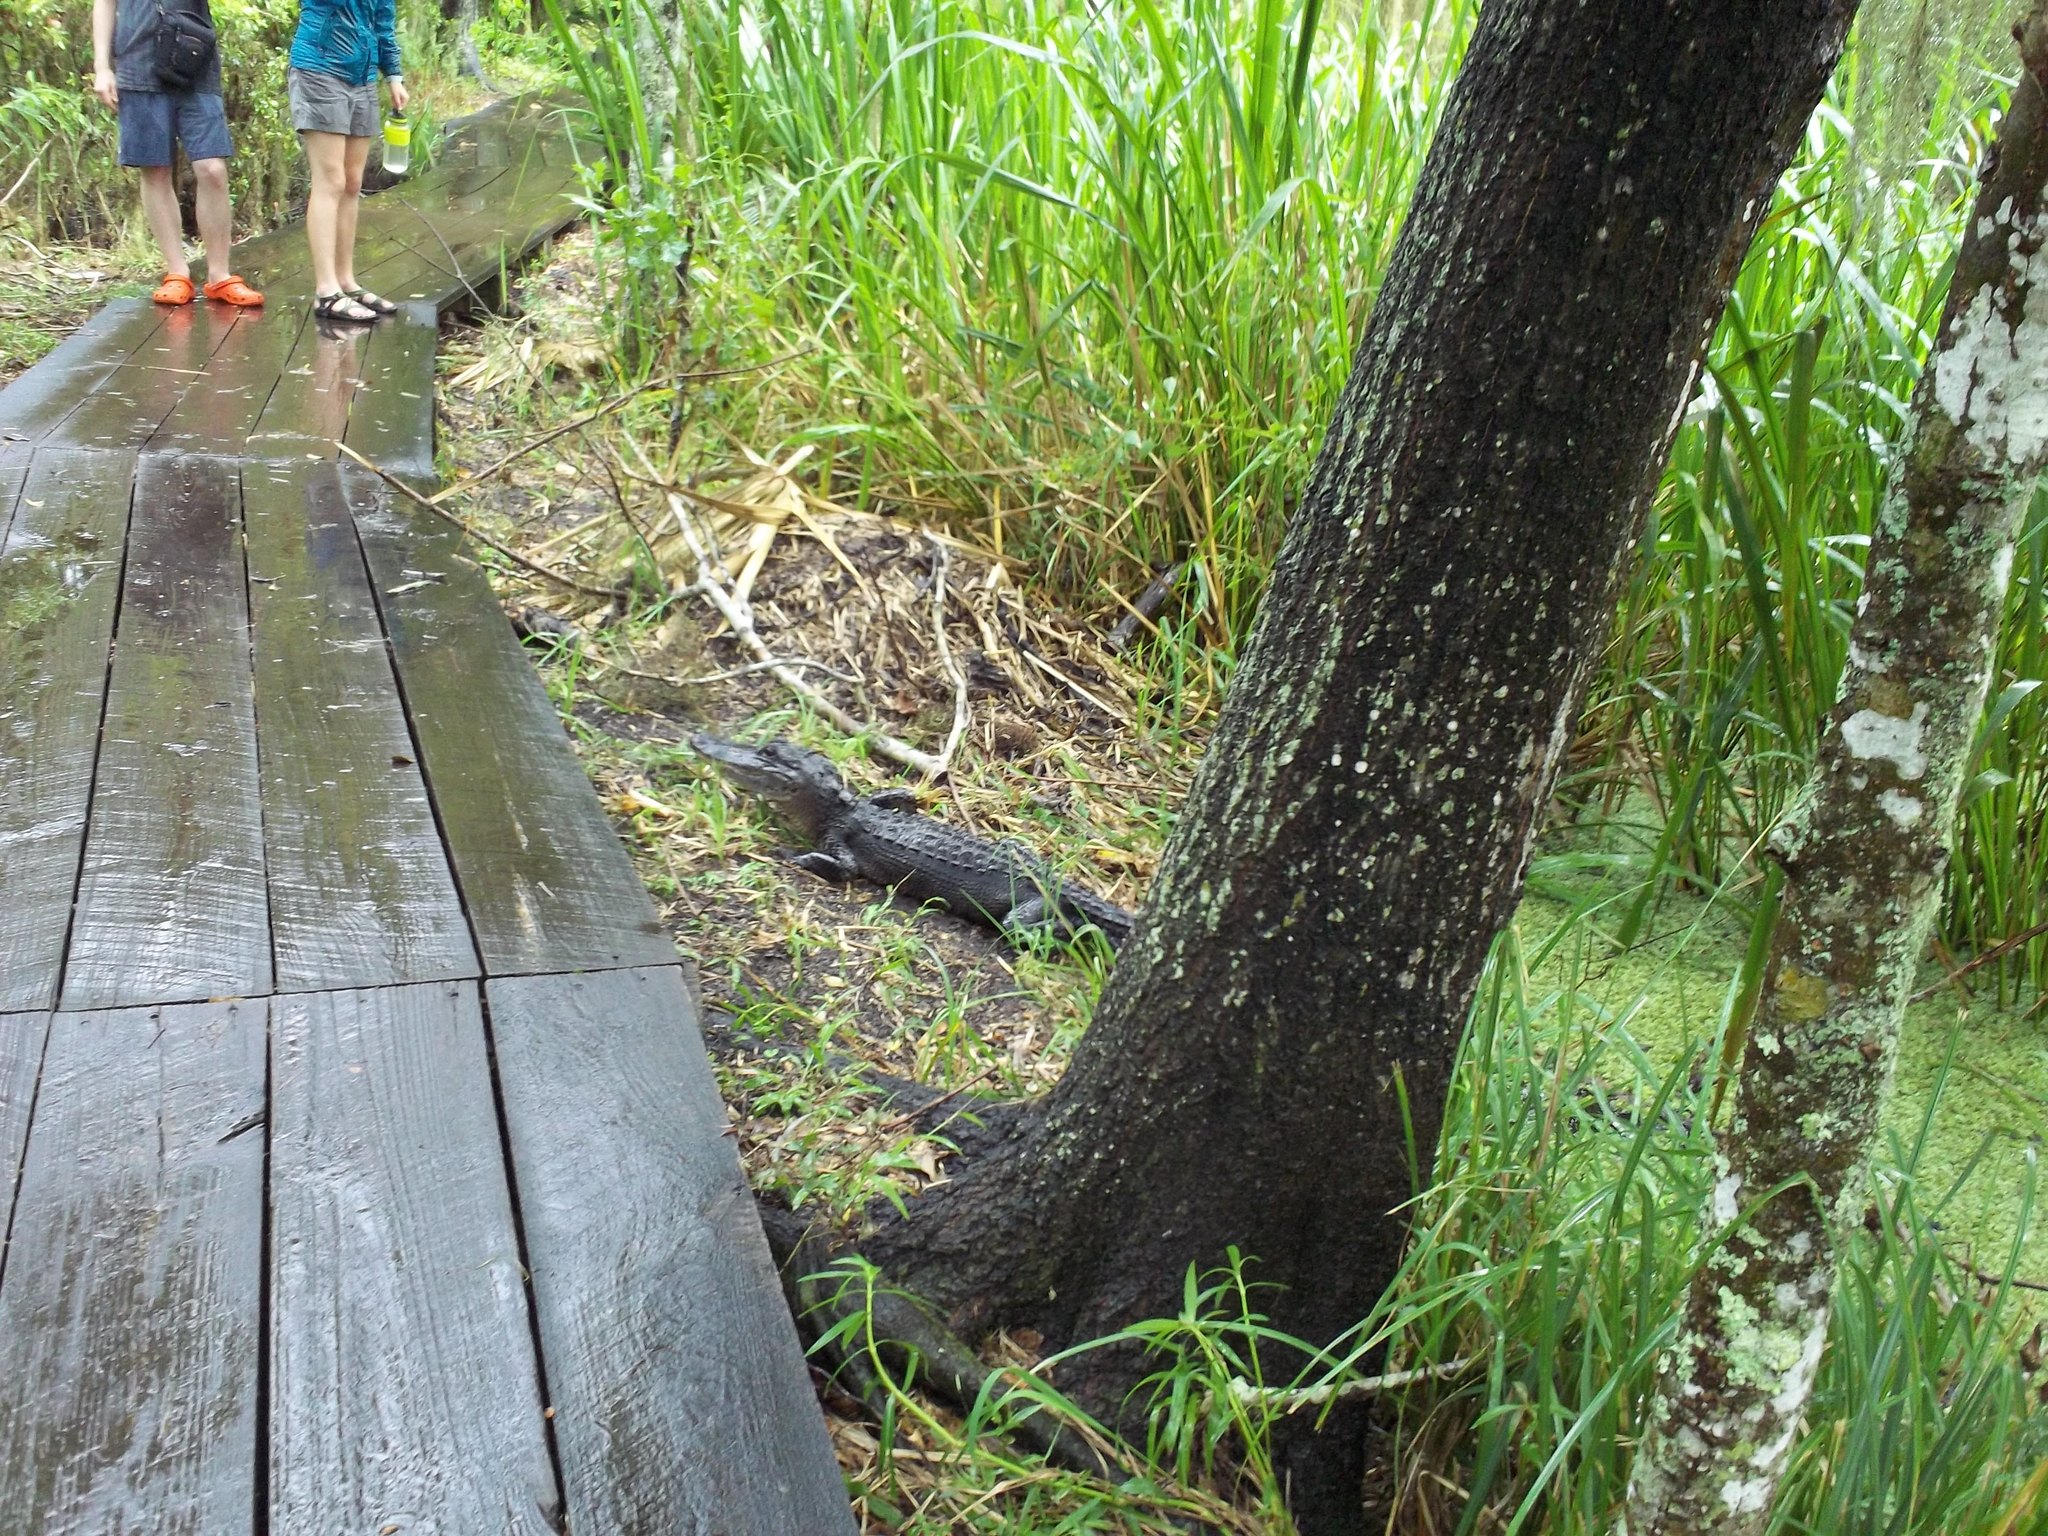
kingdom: Animalia
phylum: Chordata
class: Crocodylia
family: Alligatoridae
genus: Alligator
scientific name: Alligator mississippiensis
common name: American alligator
